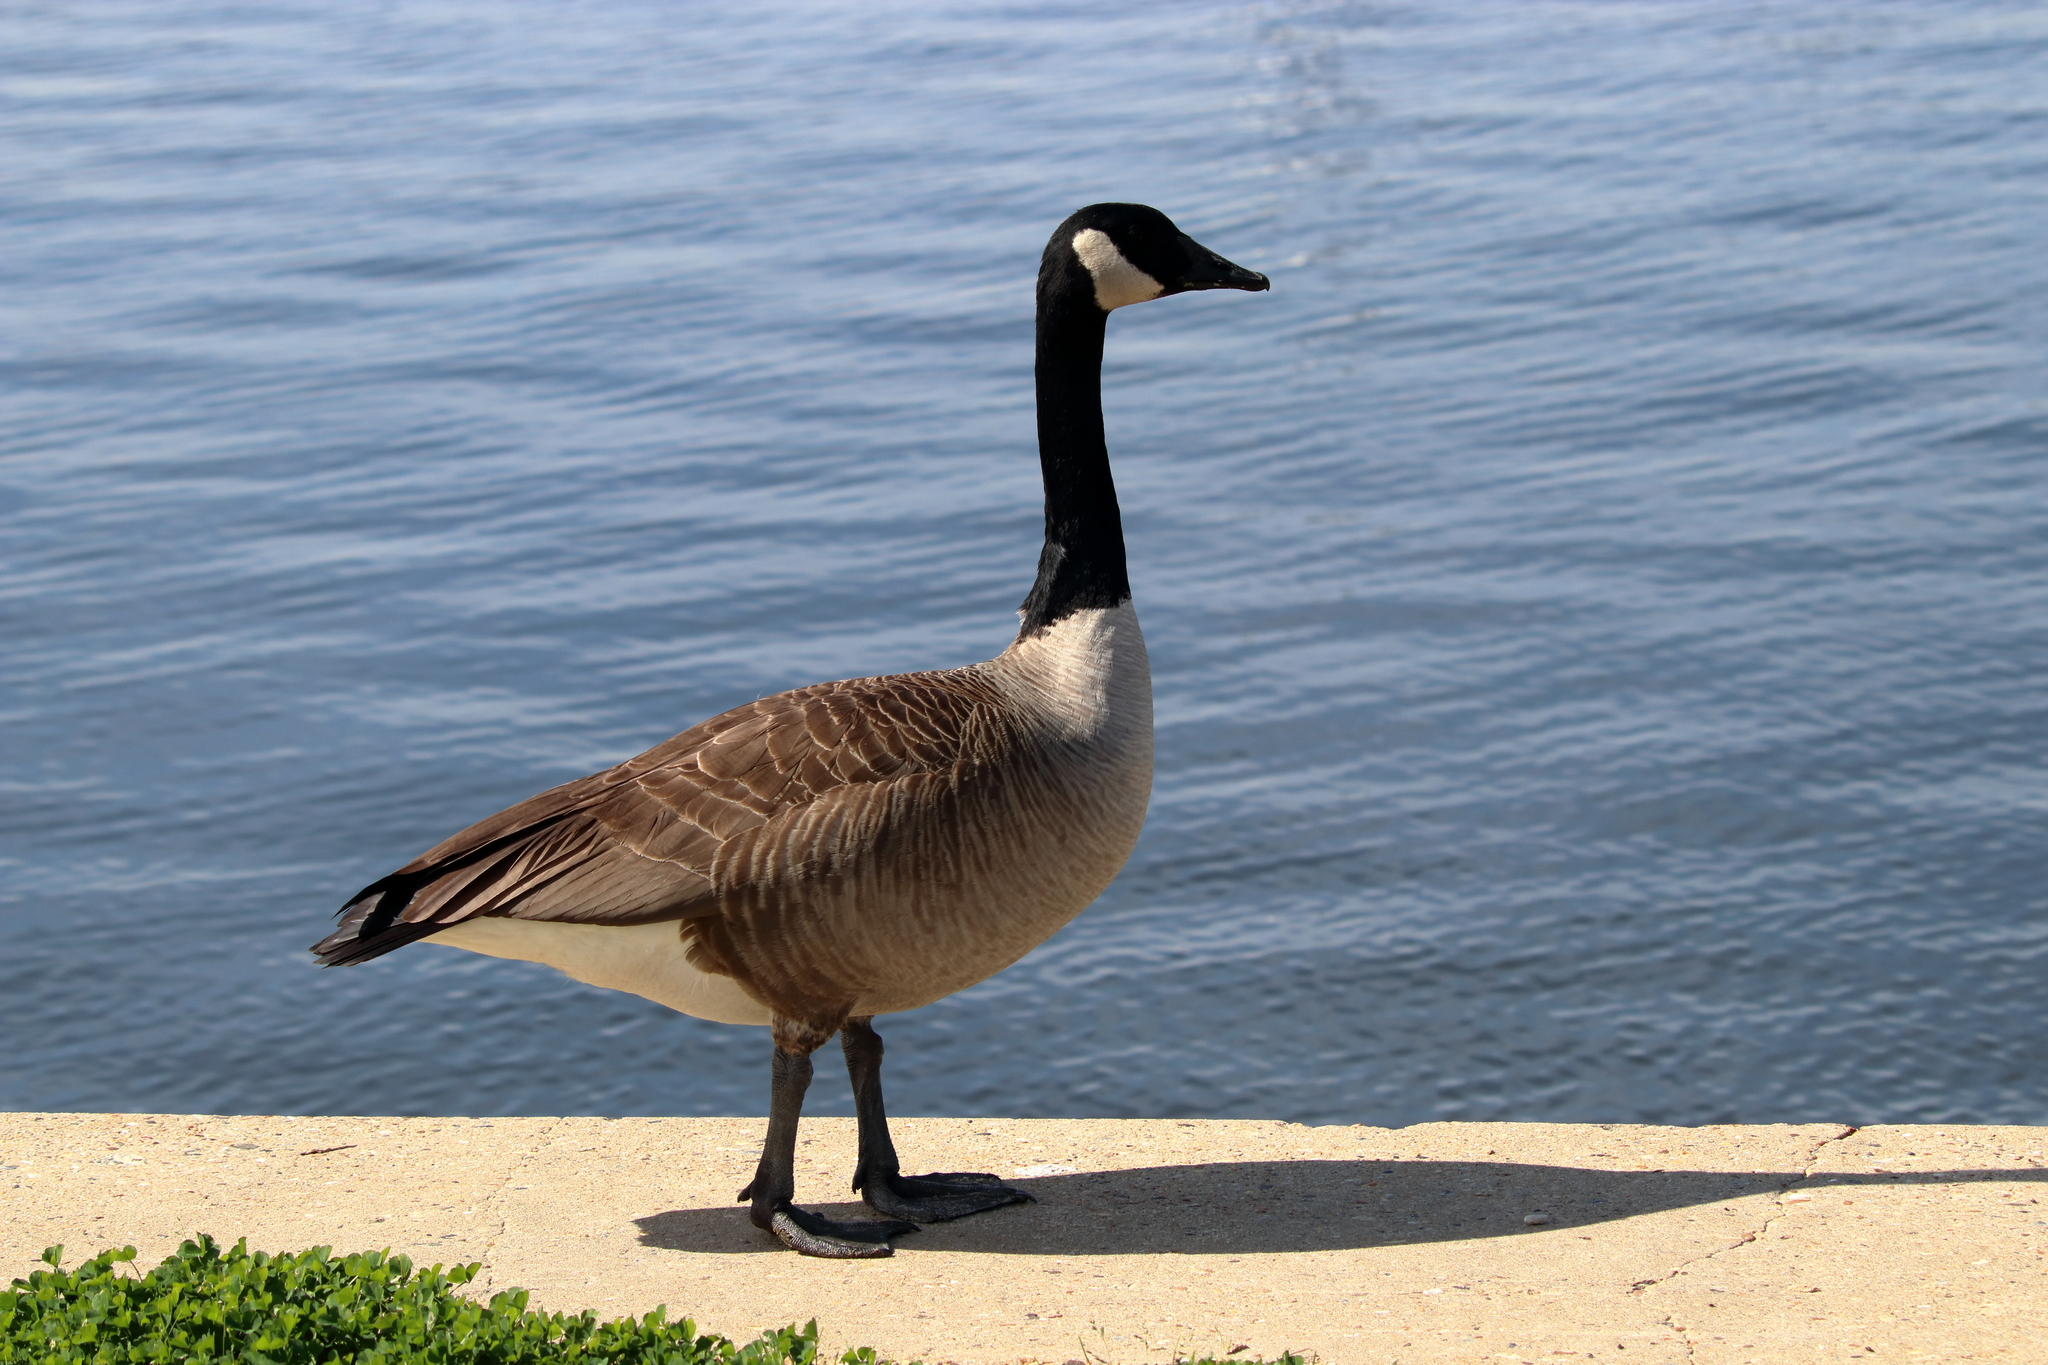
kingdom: Animalia
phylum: Chordata
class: Aves
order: Anseriformes
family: Anatidae
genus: Branta
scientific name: Branta canadensis
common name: Canada goose
